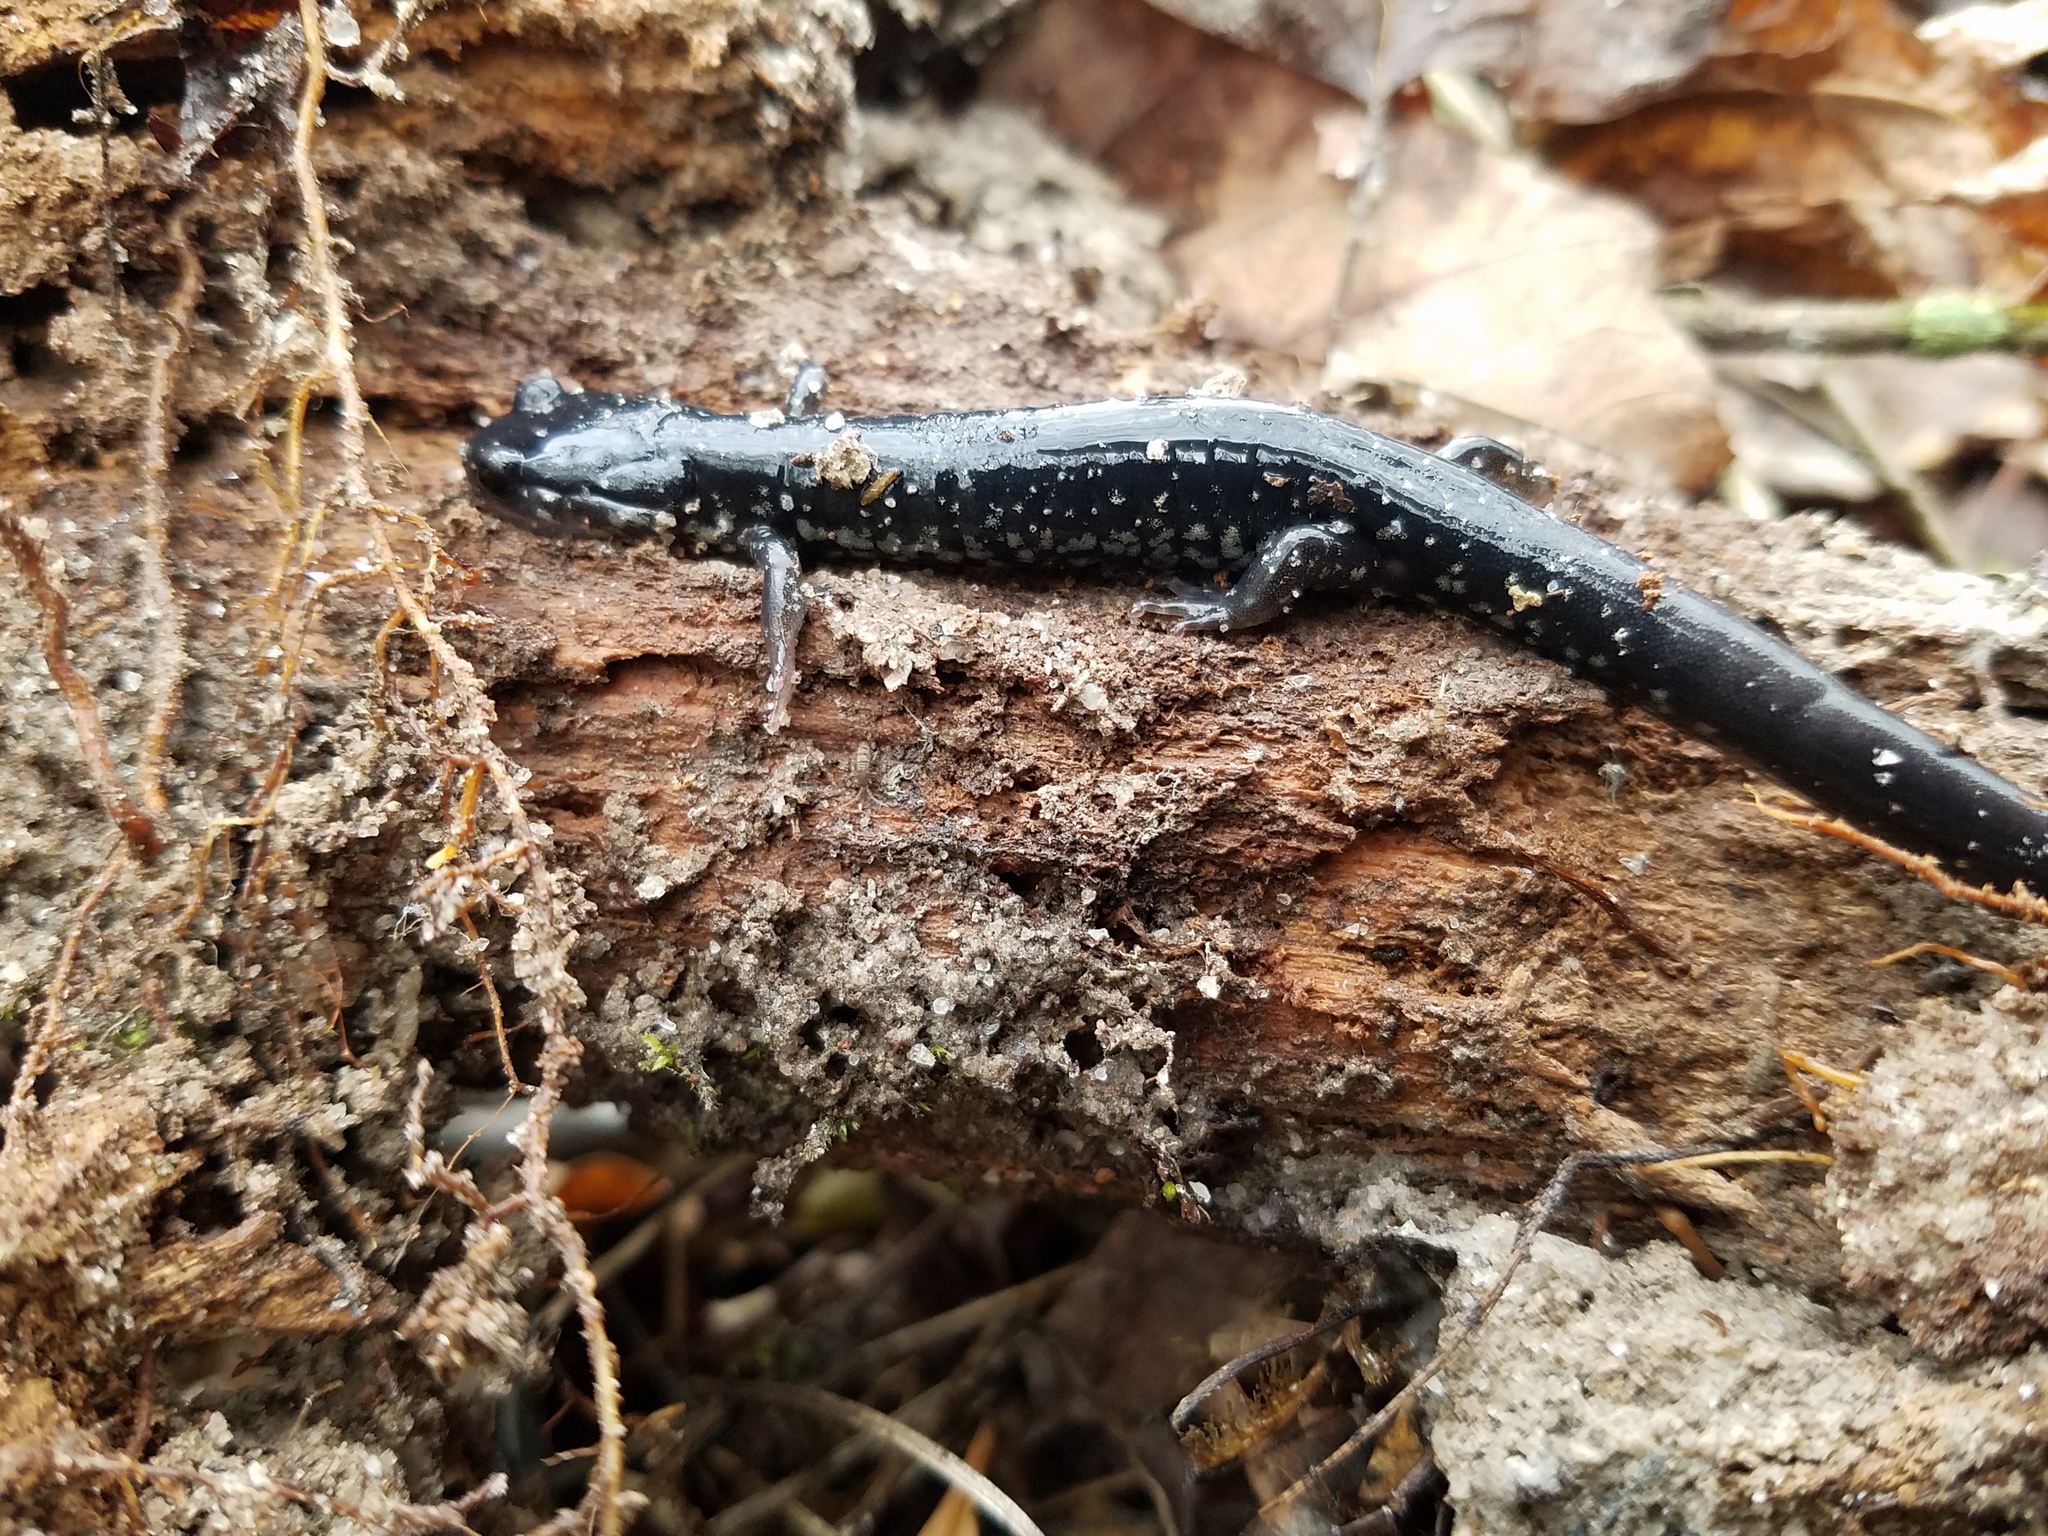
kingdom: Animalia
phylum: Chordata
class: Amphibia
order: Caudata
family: Plethodontidae
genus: Plethodon
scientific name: Plethodon glutinosus
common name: Northern slimy salamander
